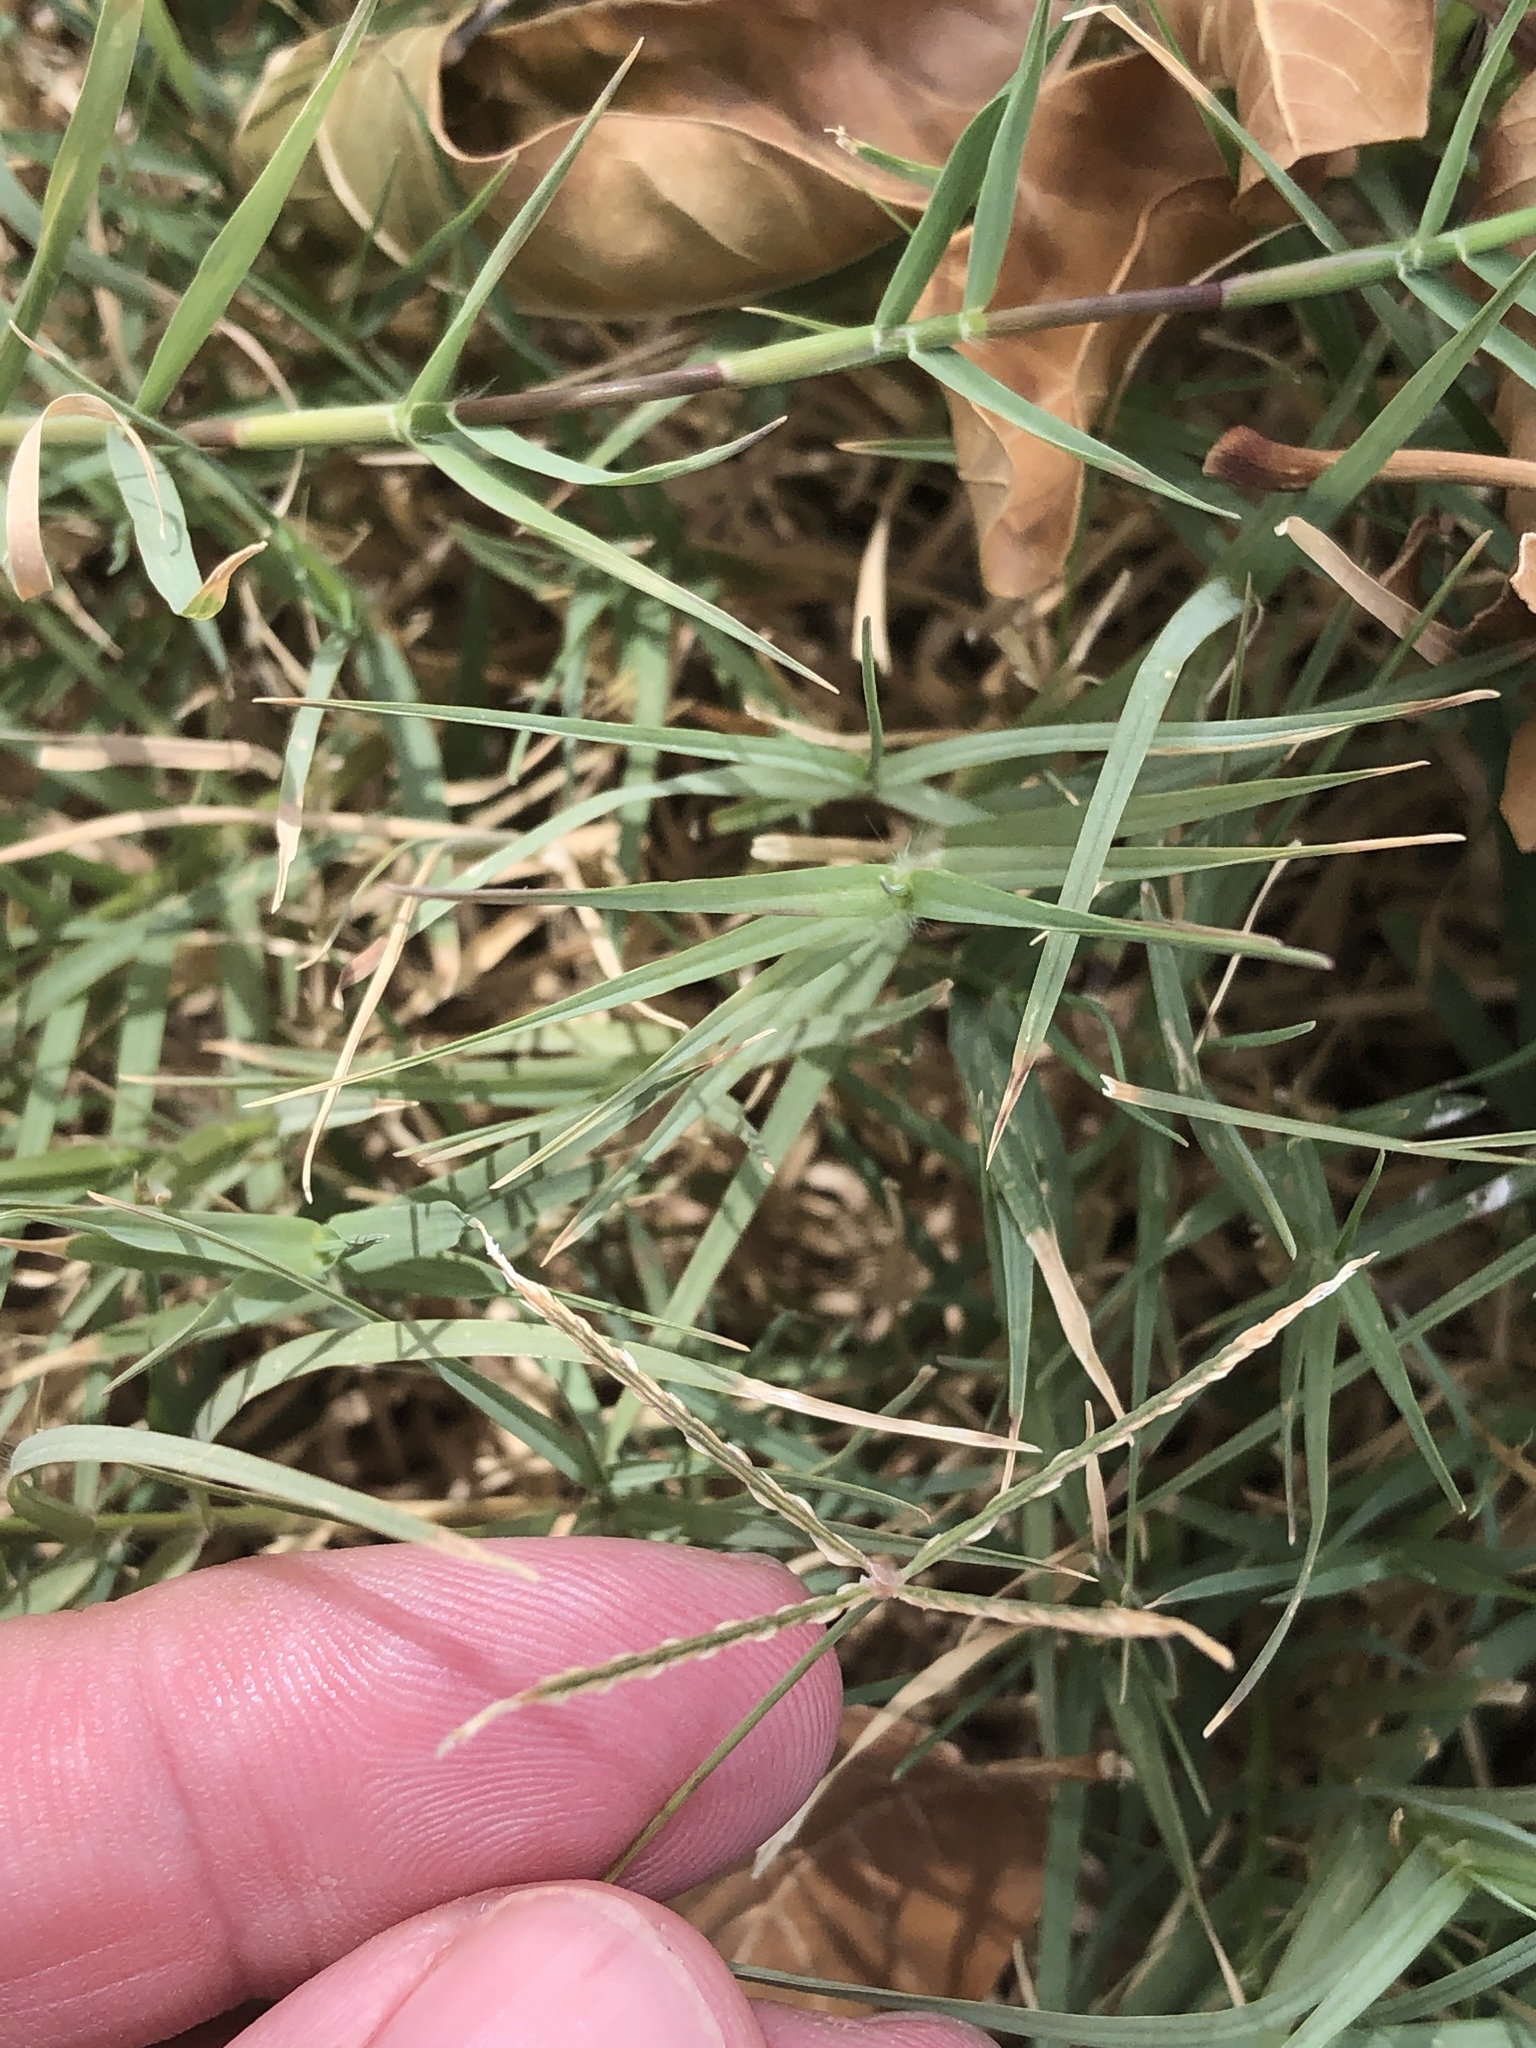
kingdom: Plantae
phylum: Tracheophyta
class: Liliopsida
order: Poales
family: Poaceae
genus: Cynodon
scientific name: Cynodon dactylon
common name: Bermuda grass
